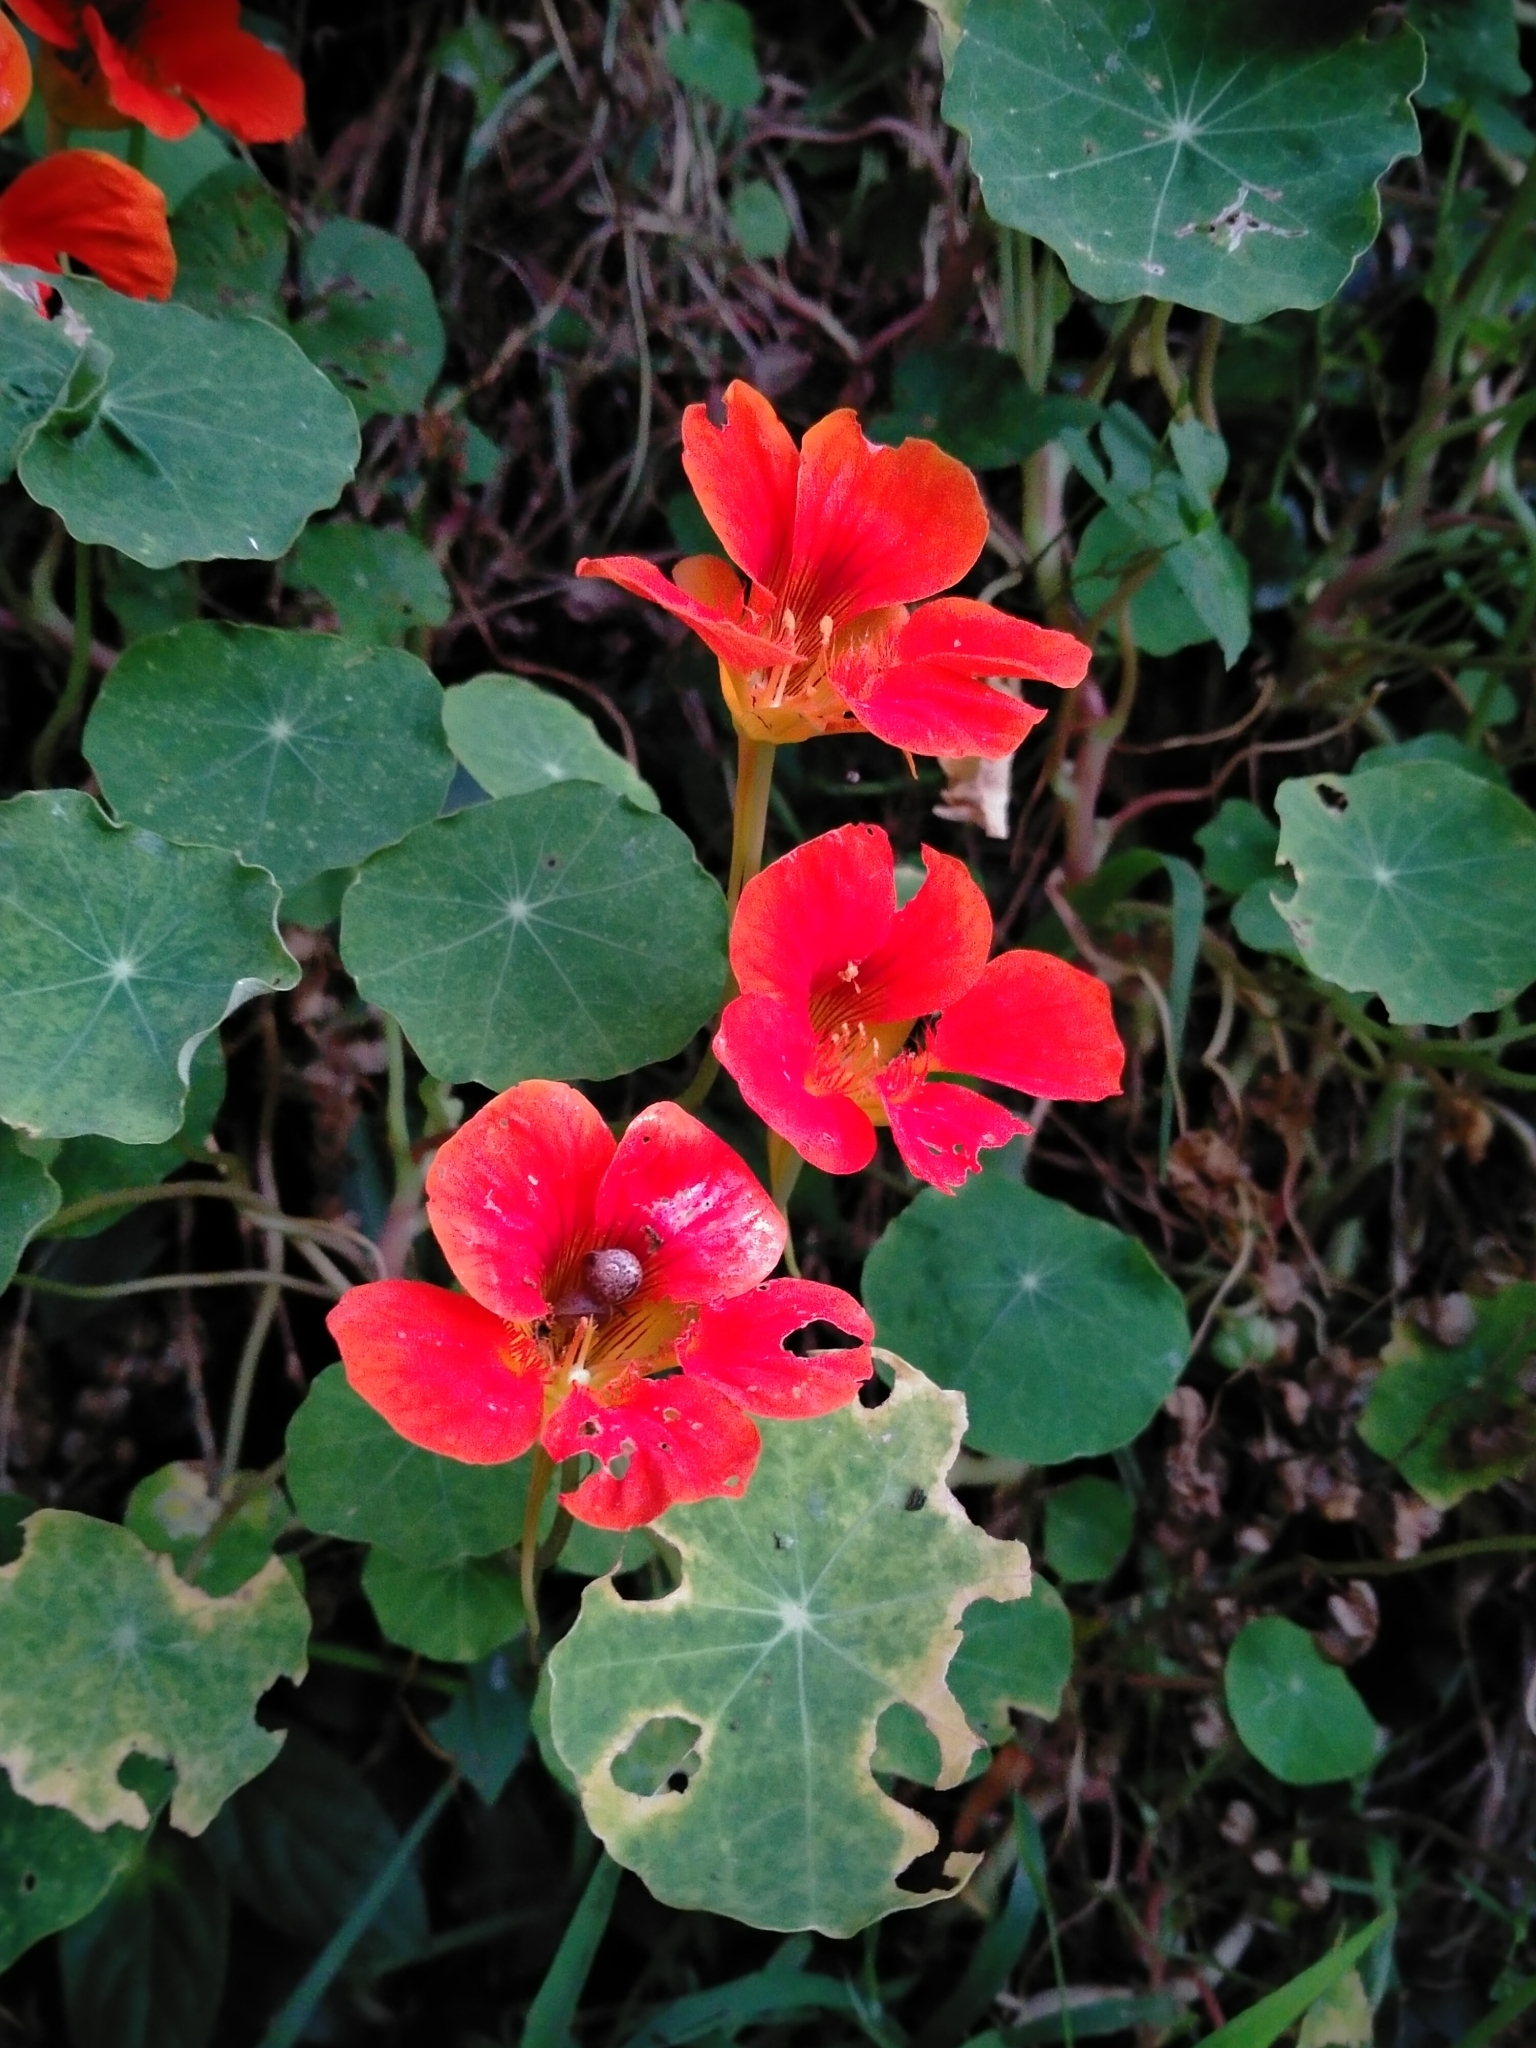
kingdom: Plantae
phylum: Tracheophyta
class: Magnoliopsida
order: Brassicales
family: Tropaeolaceae
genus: Tropaeolum
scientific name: Tropaeolum majus
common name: Nasturtium
